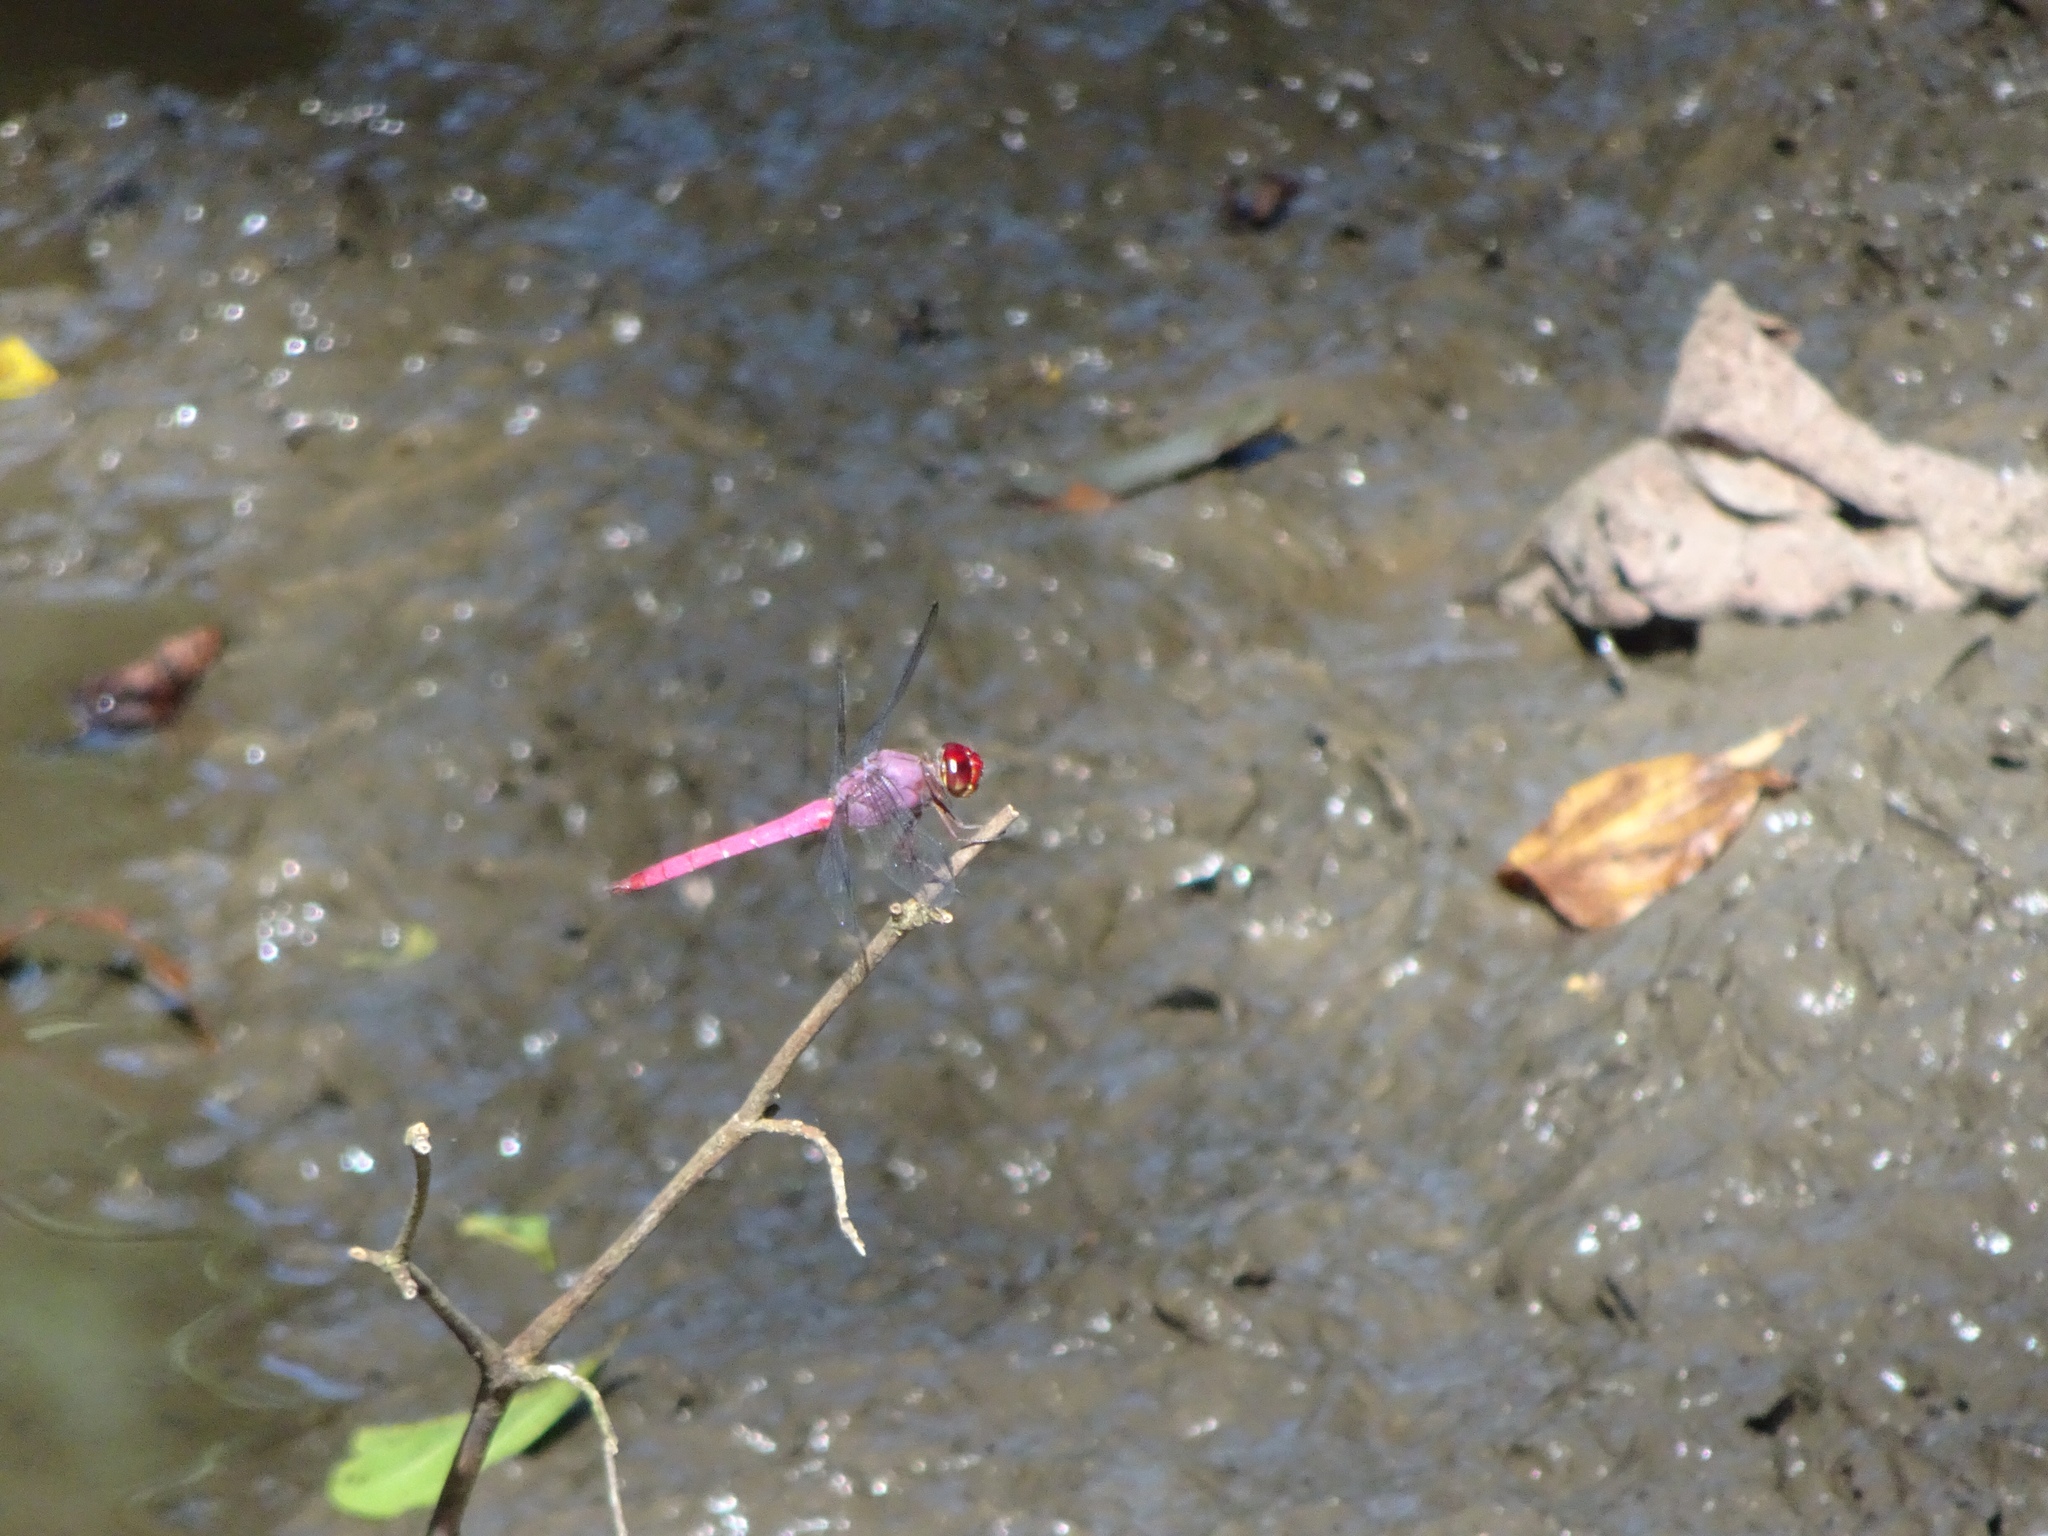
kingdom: Animalia
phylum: Arthropoda
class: Insecta
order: Odonata
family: Libellulidae
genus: Orthemis
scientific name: Orthemis discolor
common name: Carmine skimmer
